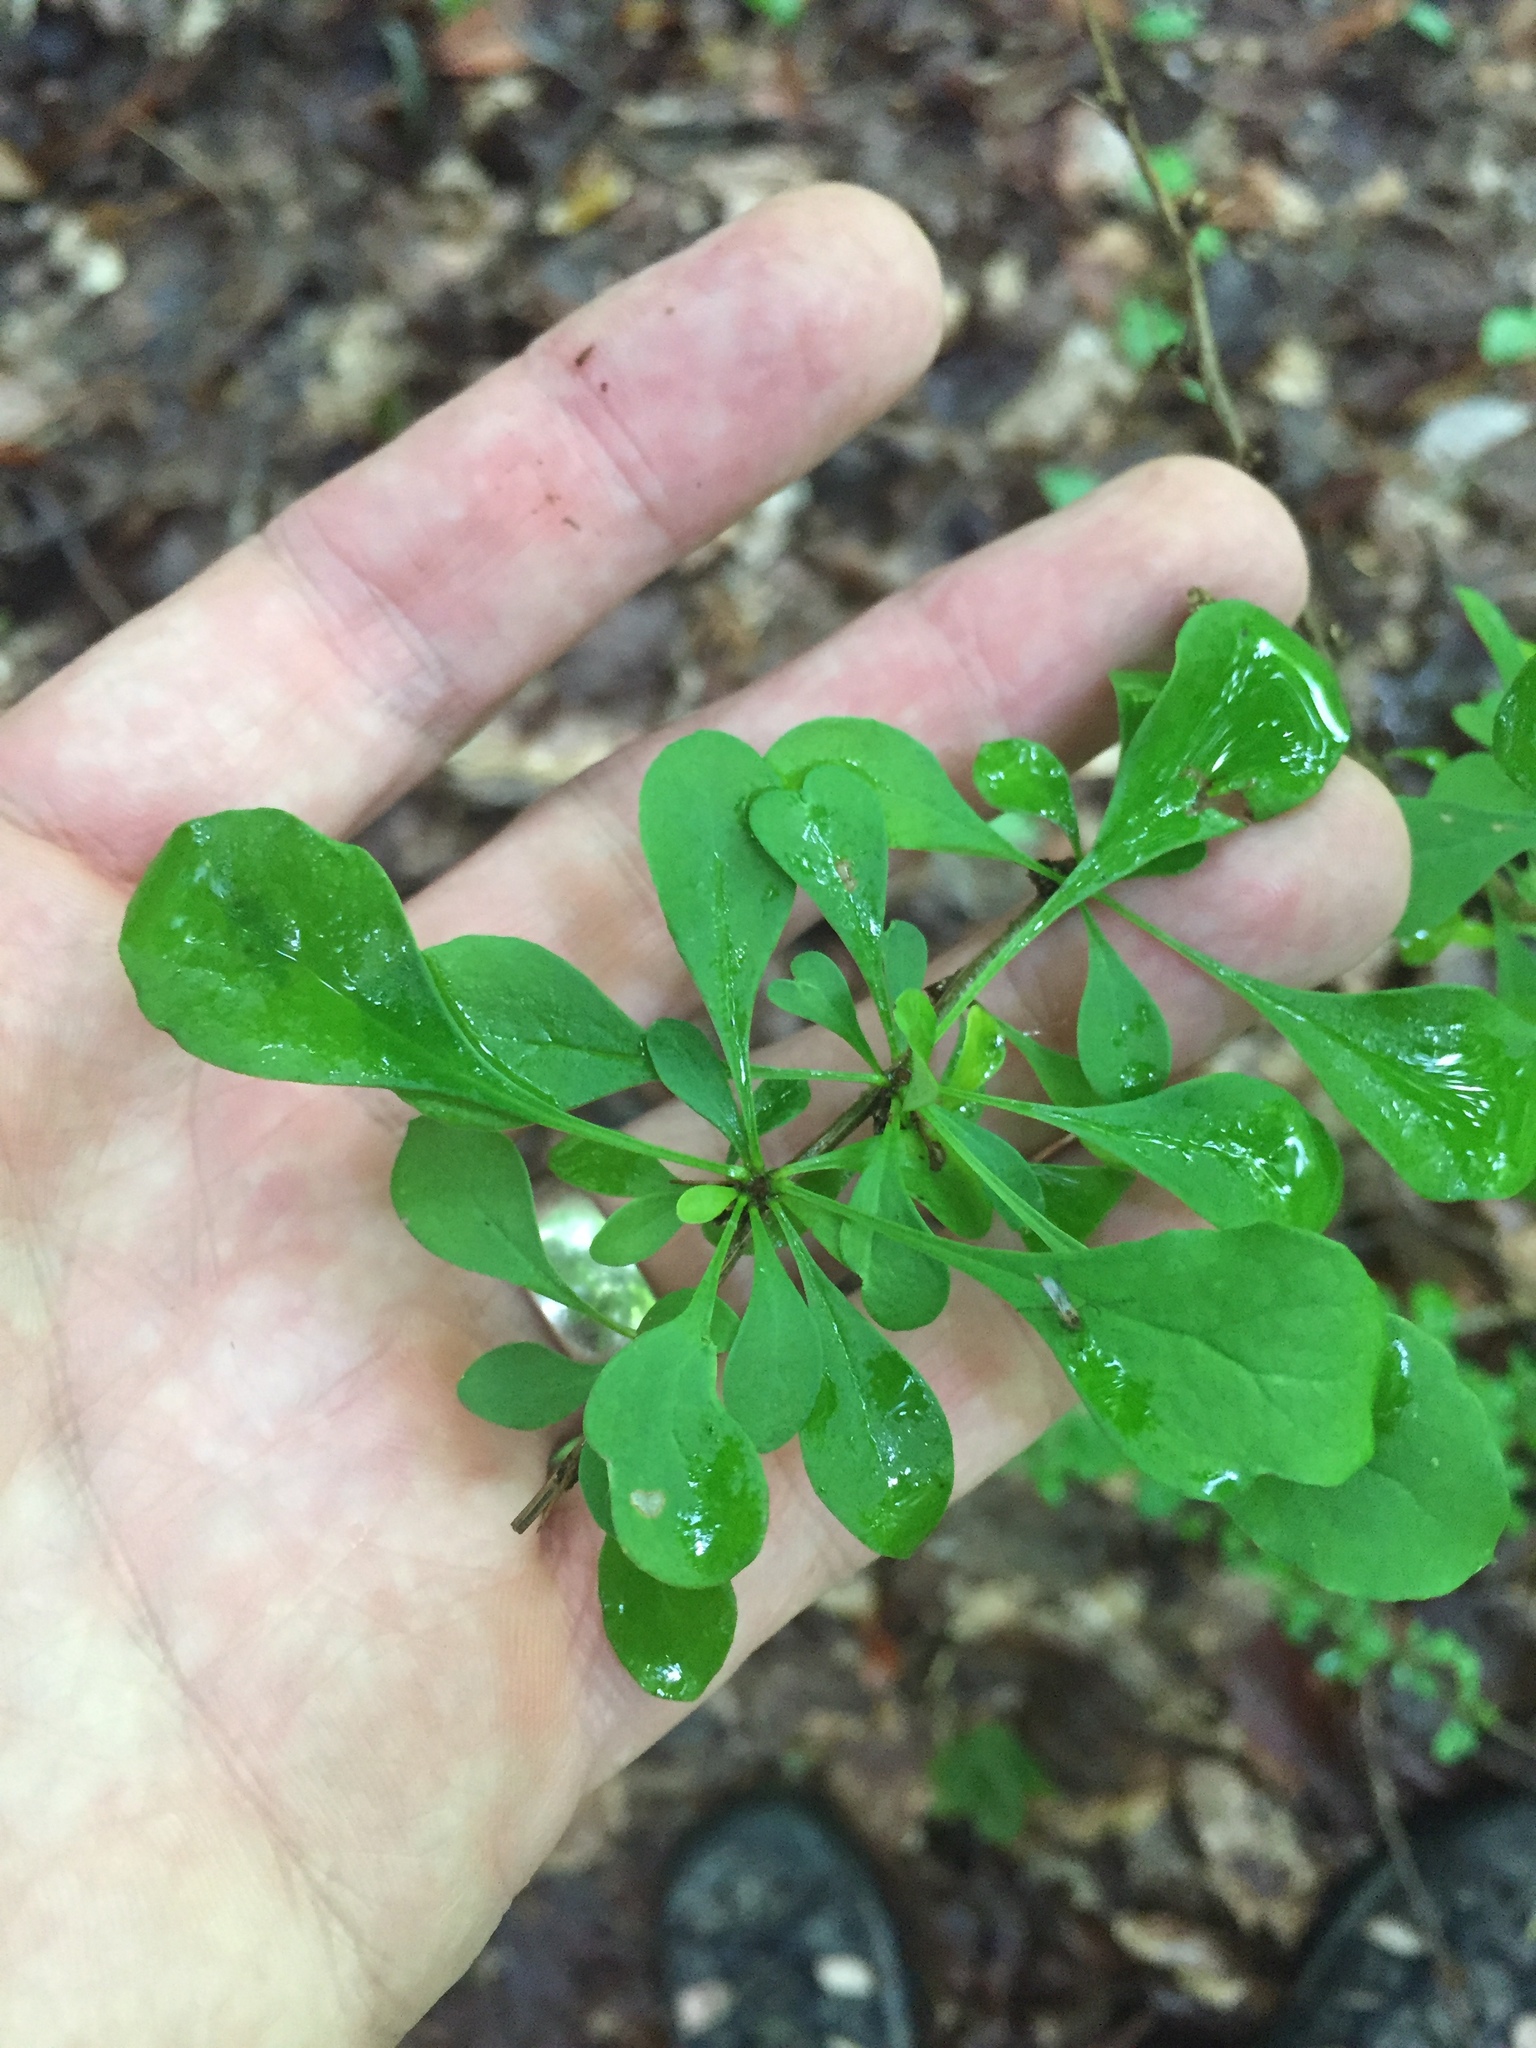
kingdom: Plantae
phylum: Tracheophyta
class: Magnoliopsida
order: Ranunculales
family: Berberidaceae
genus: Berberis
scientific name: Berberis thunbergii
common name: Japanese barberry
